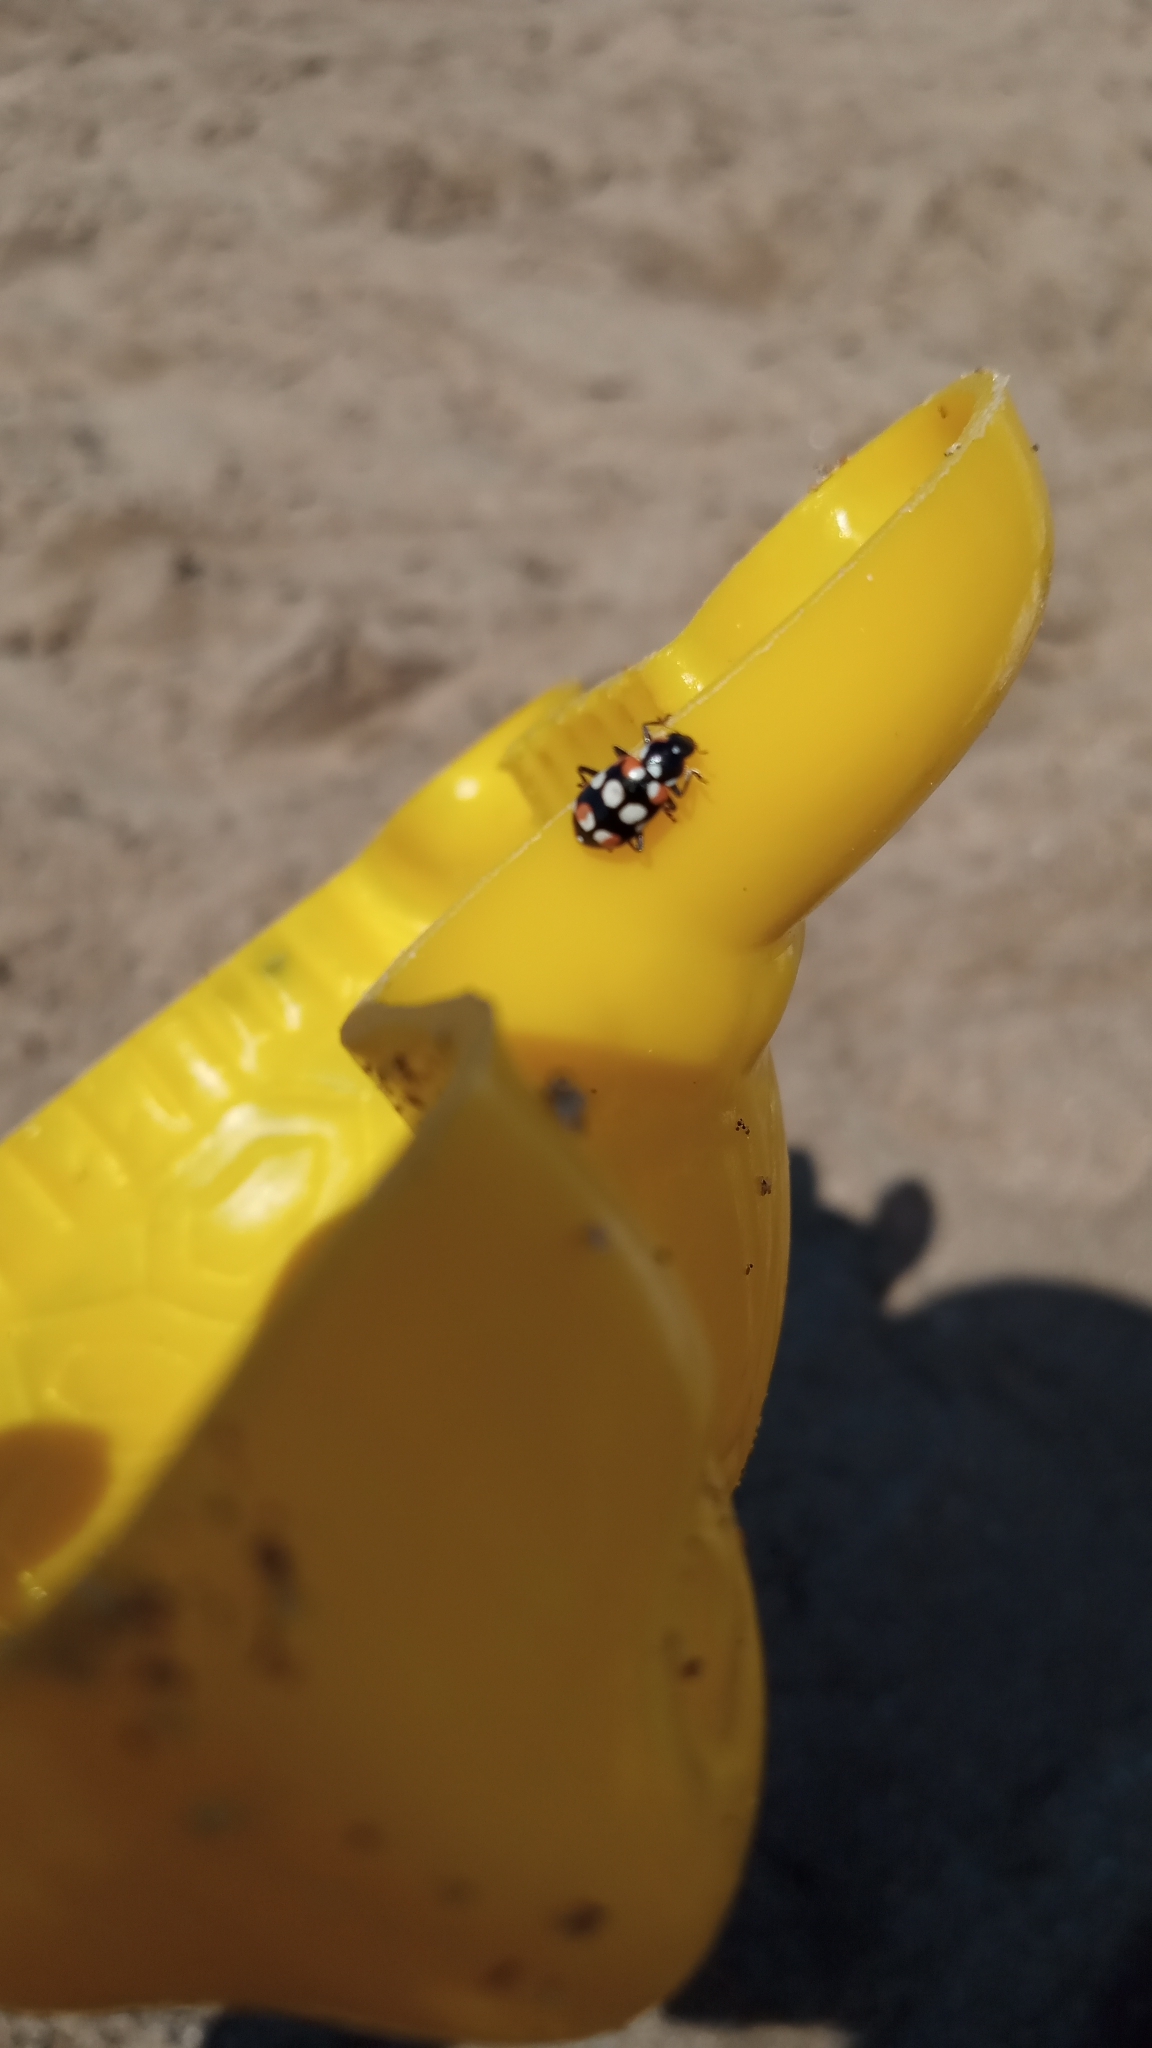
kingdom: Animalia
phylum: Arthropoda
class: Insecta
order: Coleoptera
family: Coccinellidae
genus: Eriopis
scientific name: Eriopis connexa
